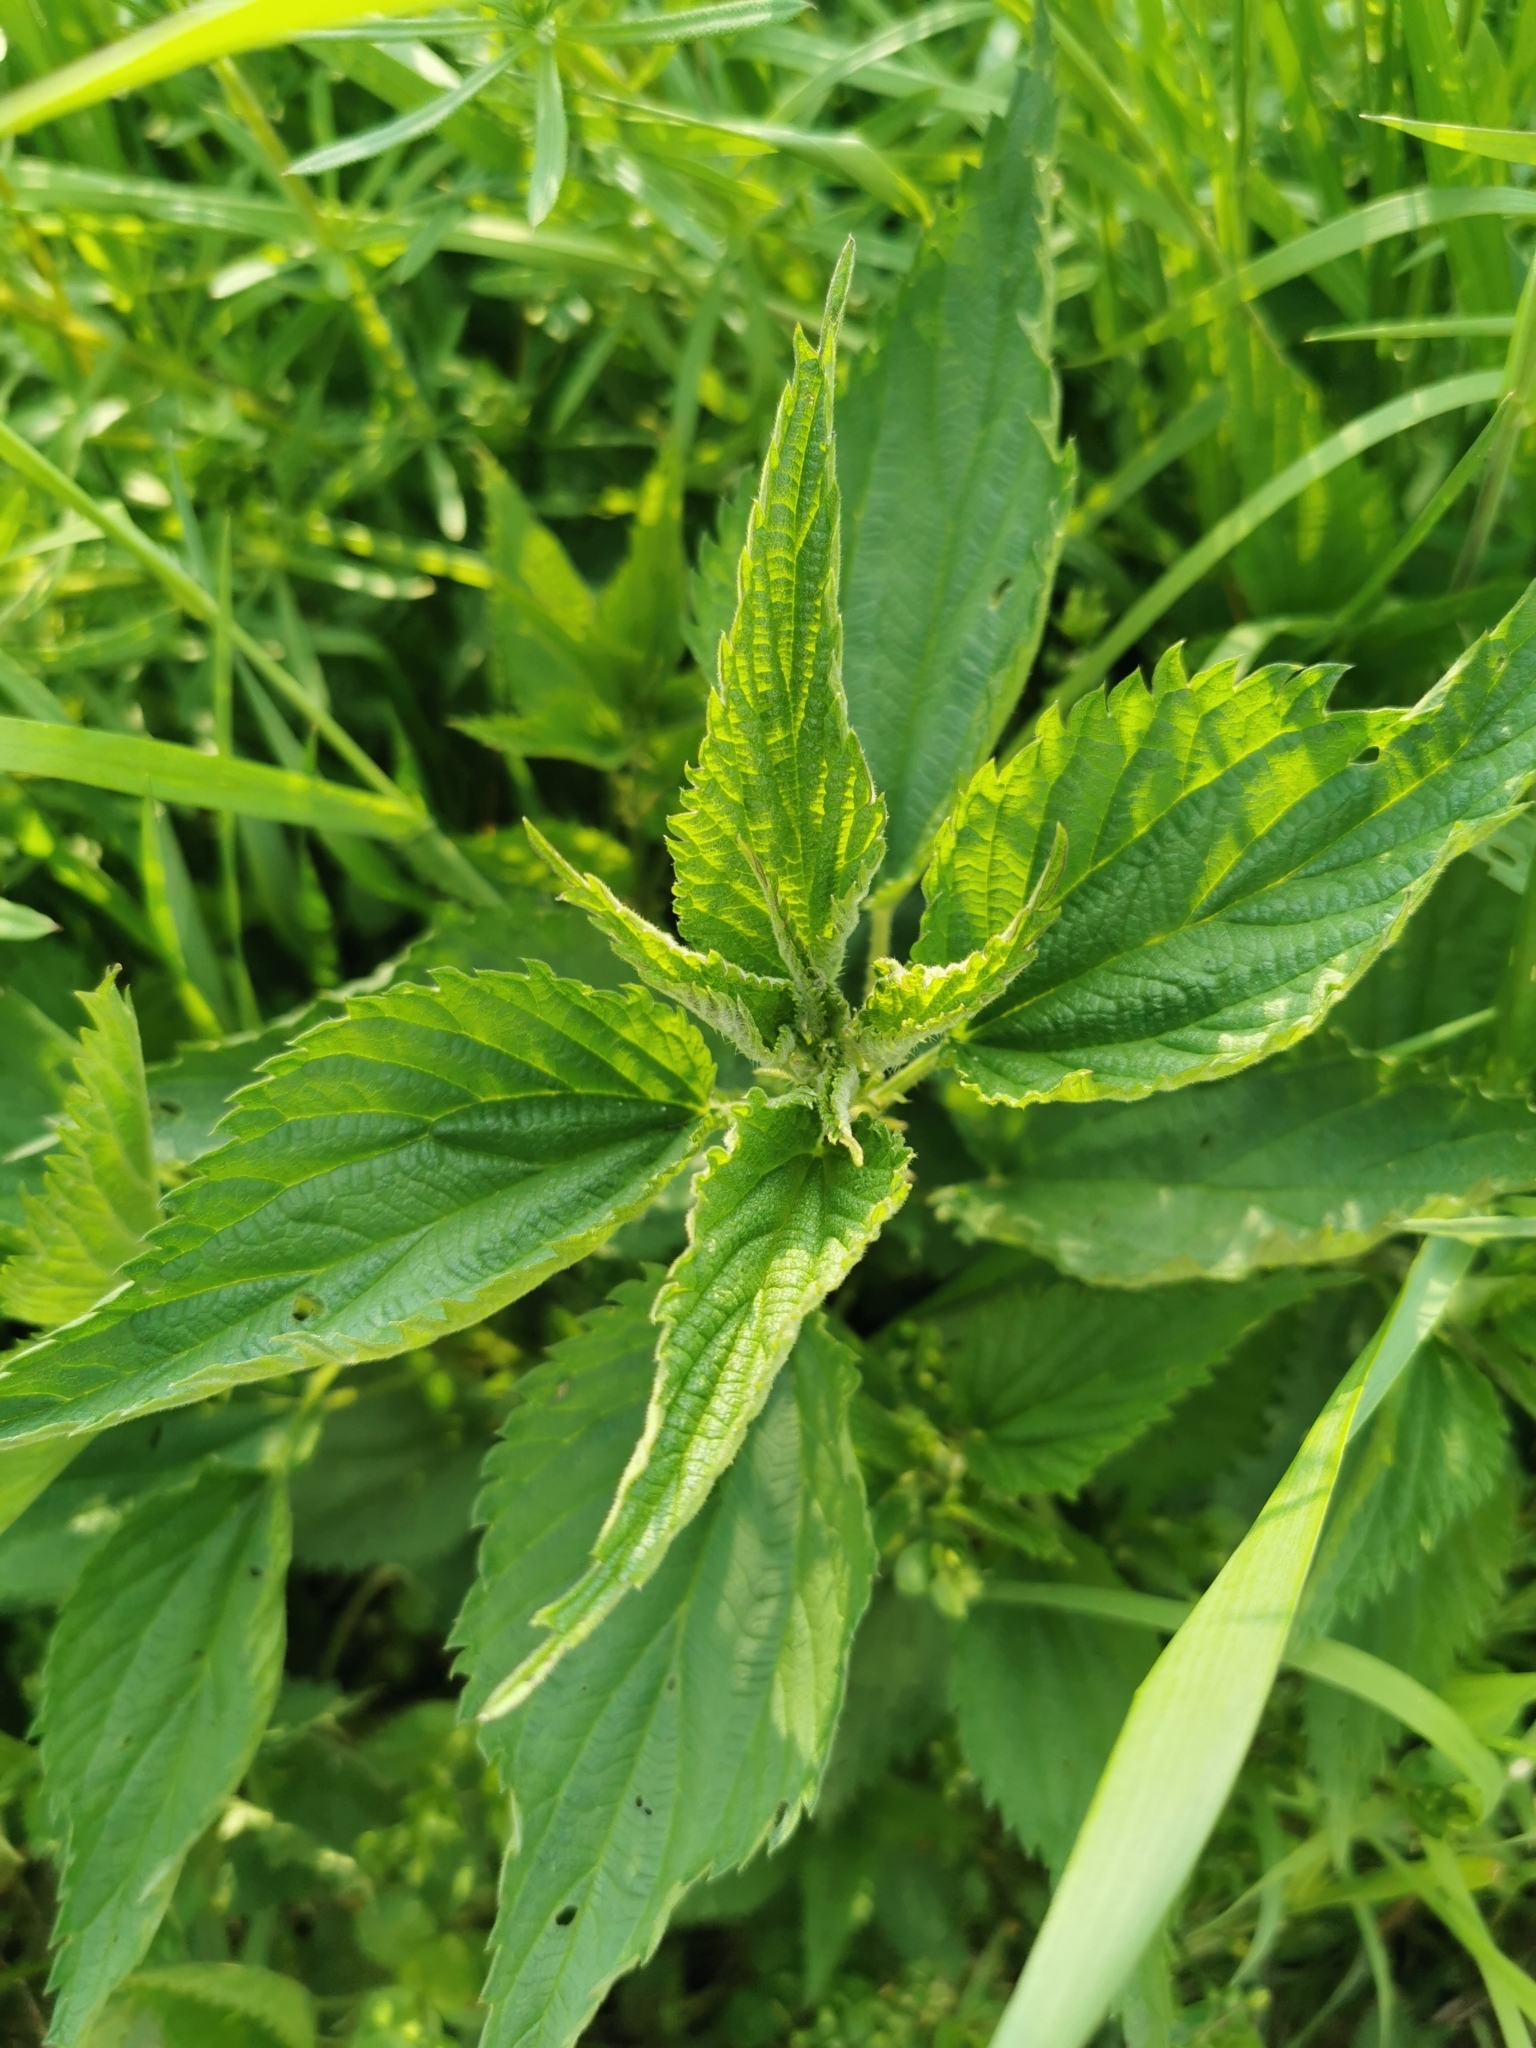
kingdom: Plantae
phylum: Tracheophyta
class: Magnoliopsida
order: Rosales
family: Urticaceae
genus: Urtica
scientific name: Urtica dioica
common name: Common nettle
